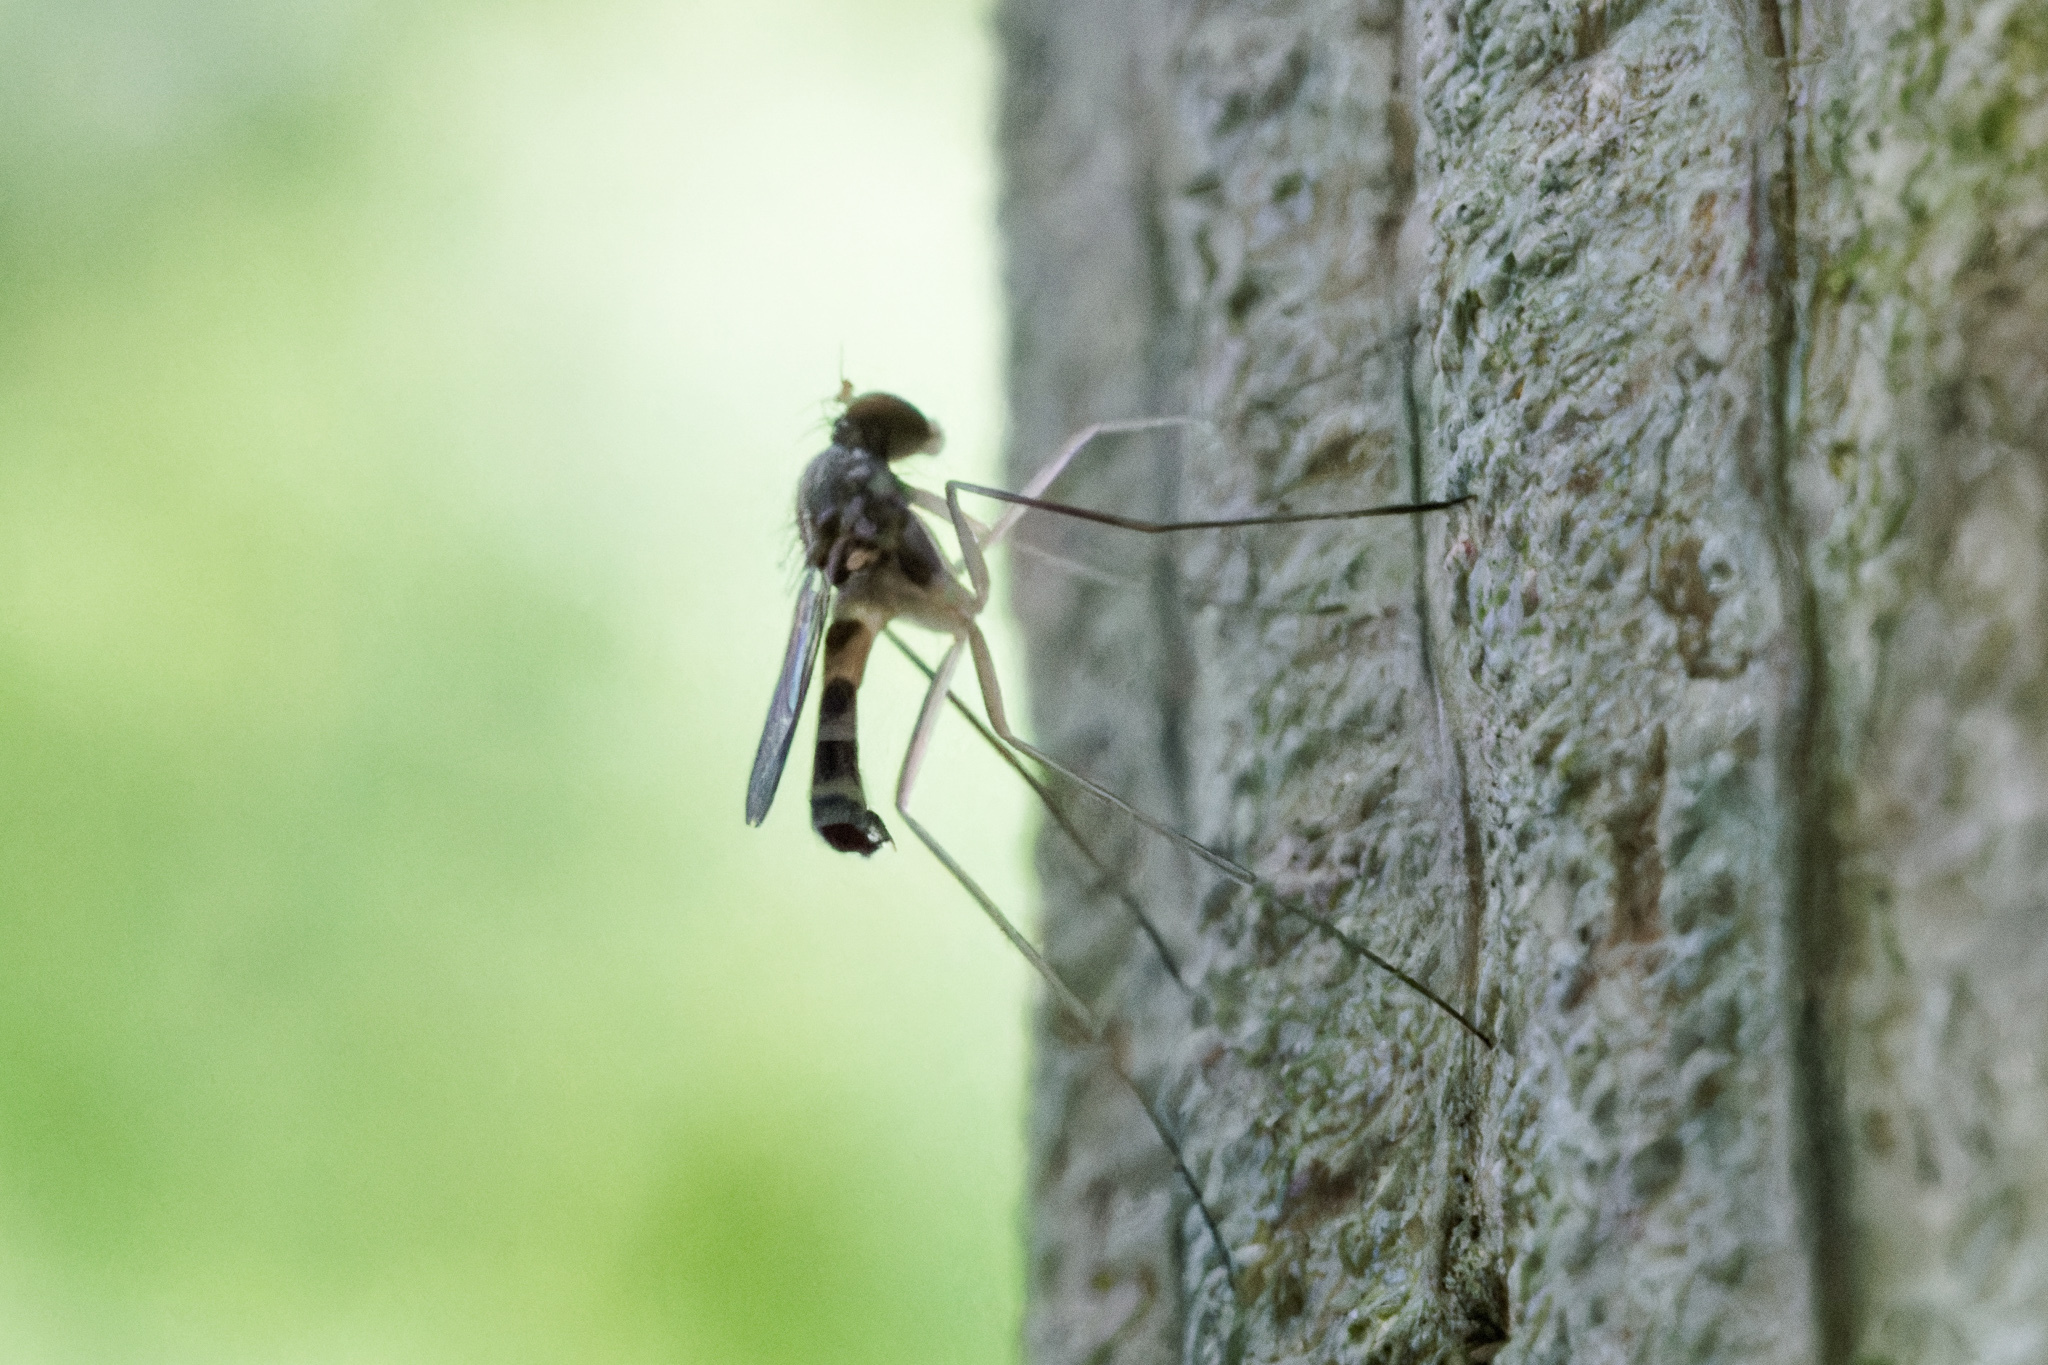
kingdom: Animalia
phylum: Arthropoda
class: Insecta
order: Diptera
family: Dolichopodidae
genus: Neurigona
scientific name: Neurigona arcuata
